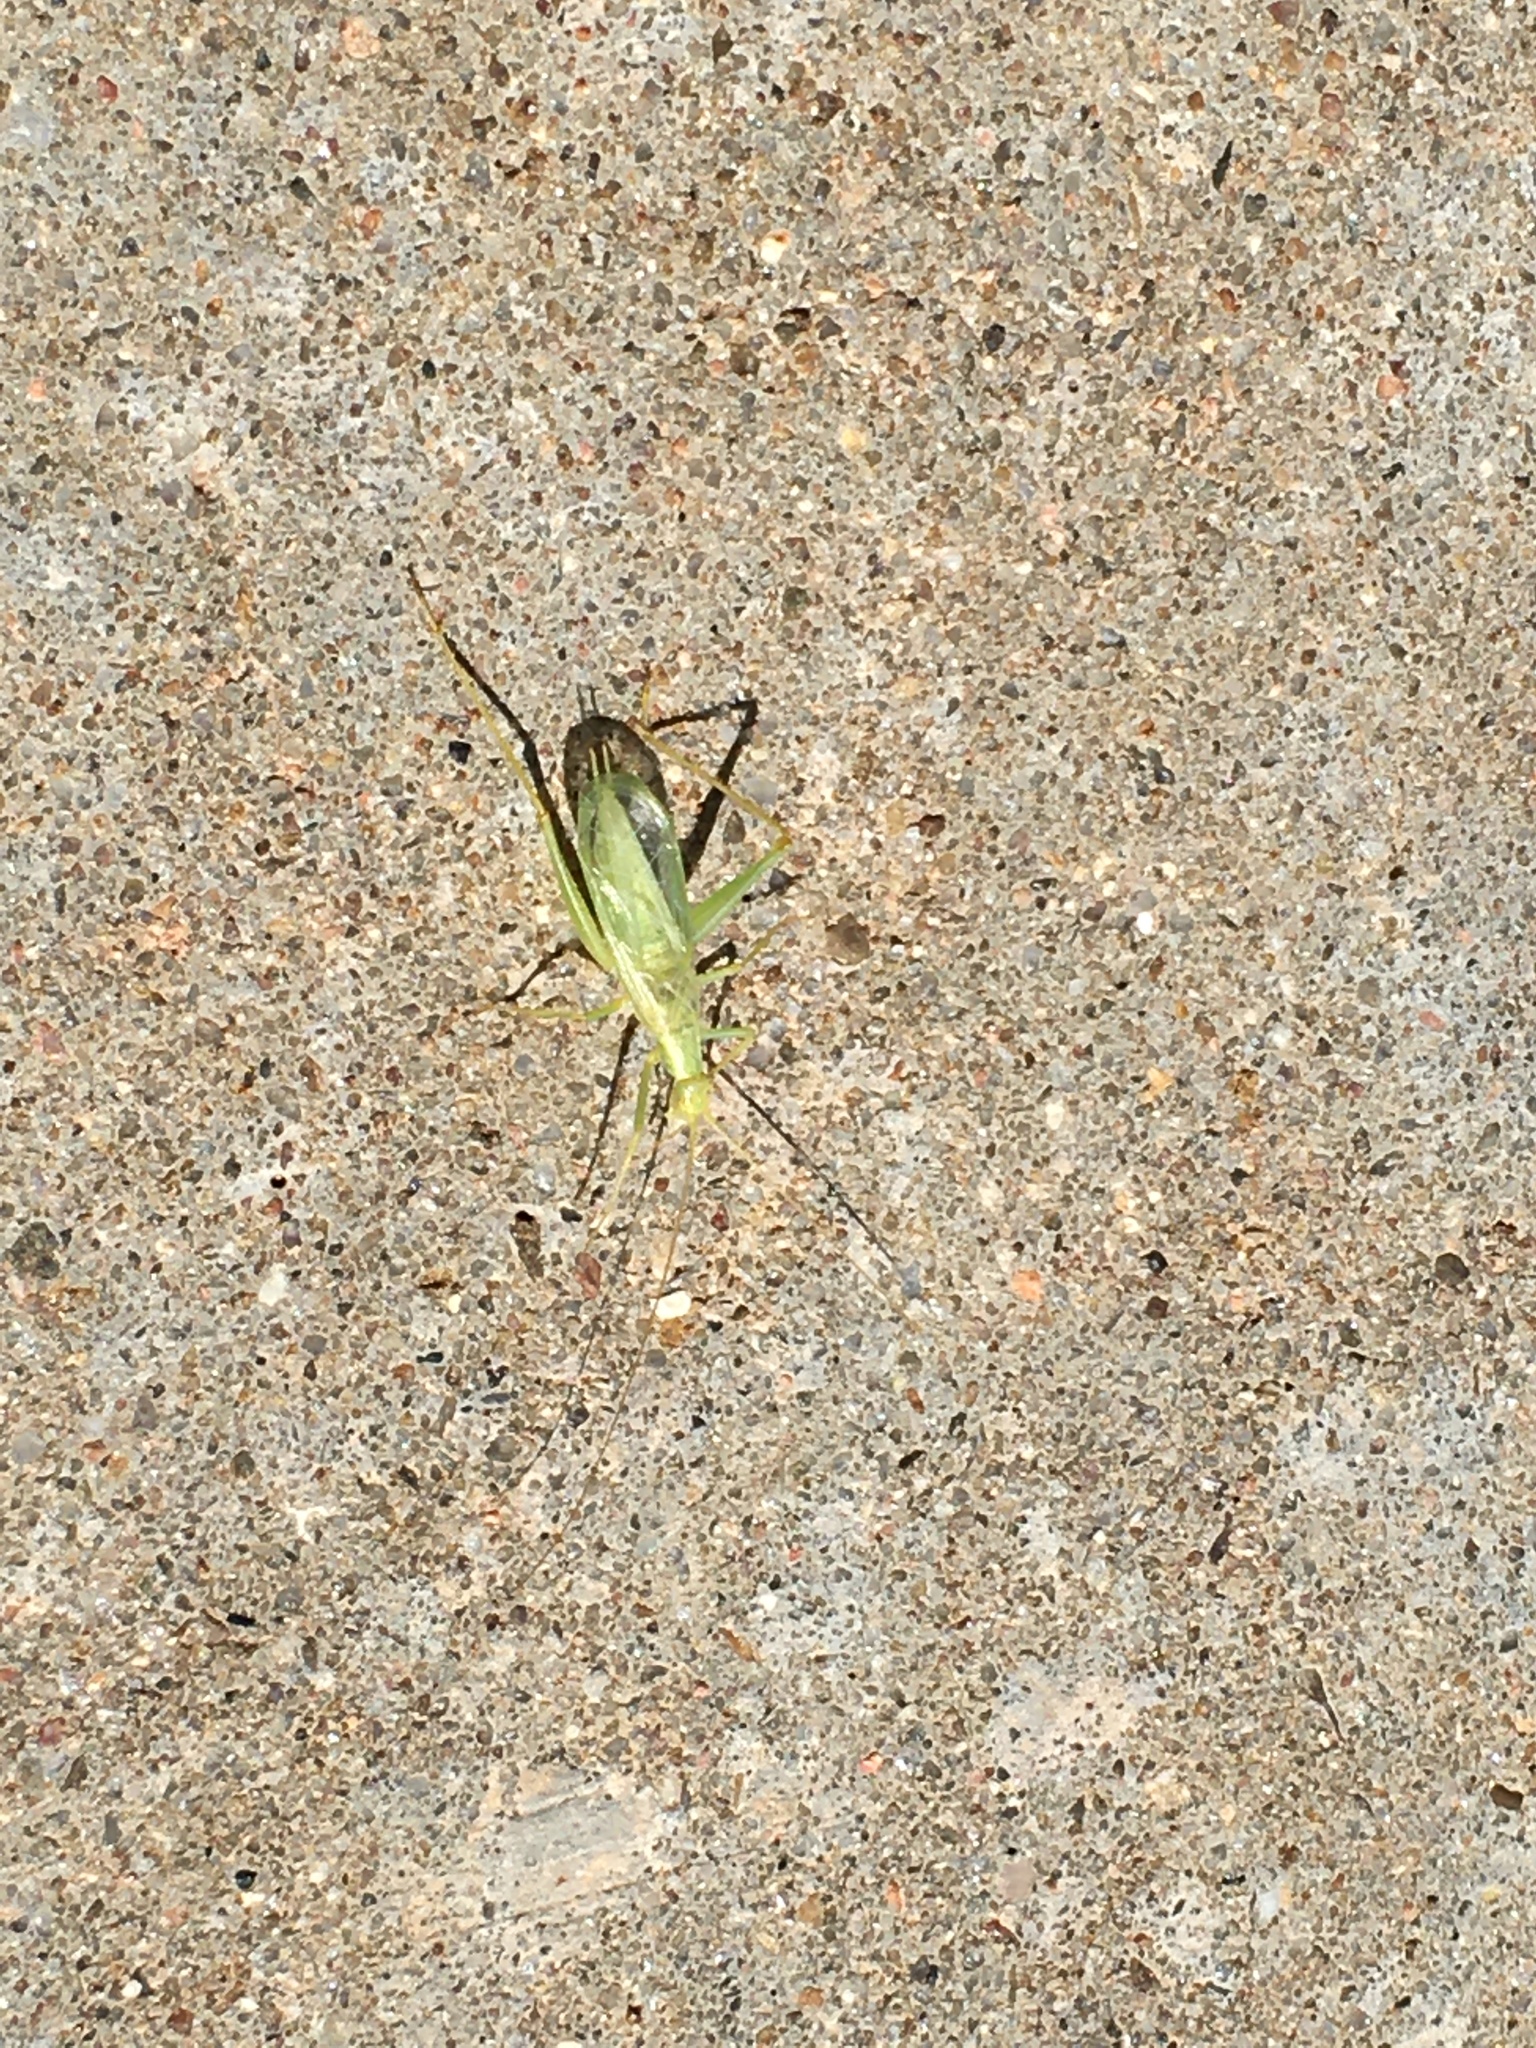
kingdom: Animalia
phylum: Arthropoda
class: Insecta
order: Orthoptera
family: Gryllidae
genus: Oecanthus
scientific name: Oecanthus quadripunctatus
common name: Four-spotted tree cricket
